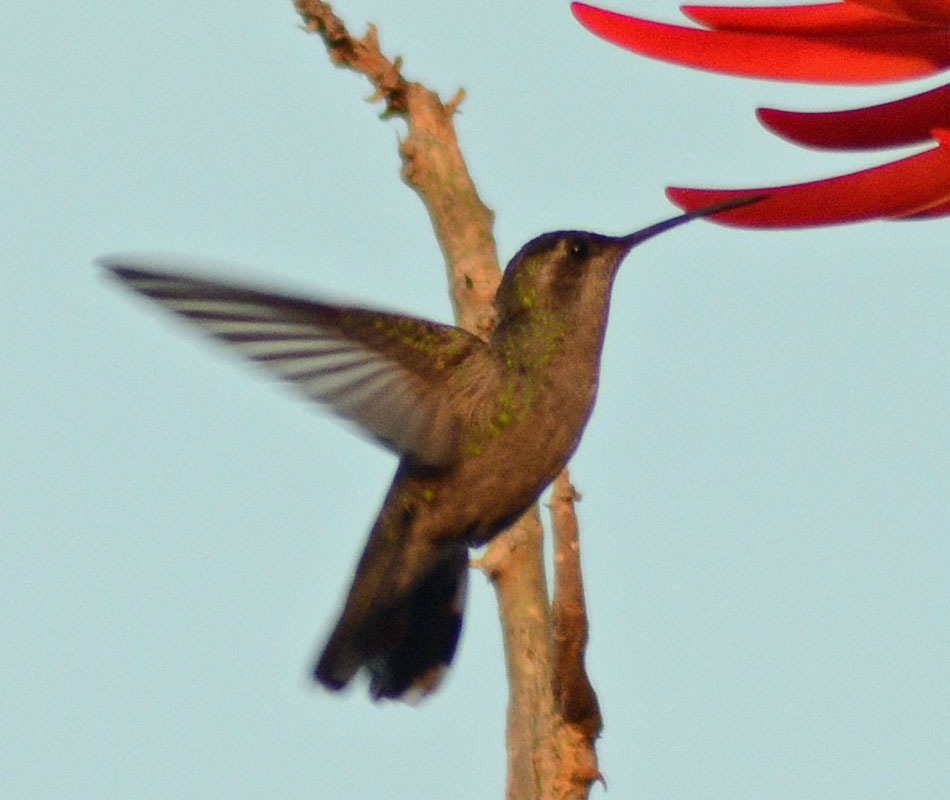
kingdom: Animalia
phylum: Chordata
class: Aves
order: Apodiformes
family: Trochilidae
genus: Cynanthus
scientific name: Cynanthus latirostris
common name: Broad-billed hummingbird
